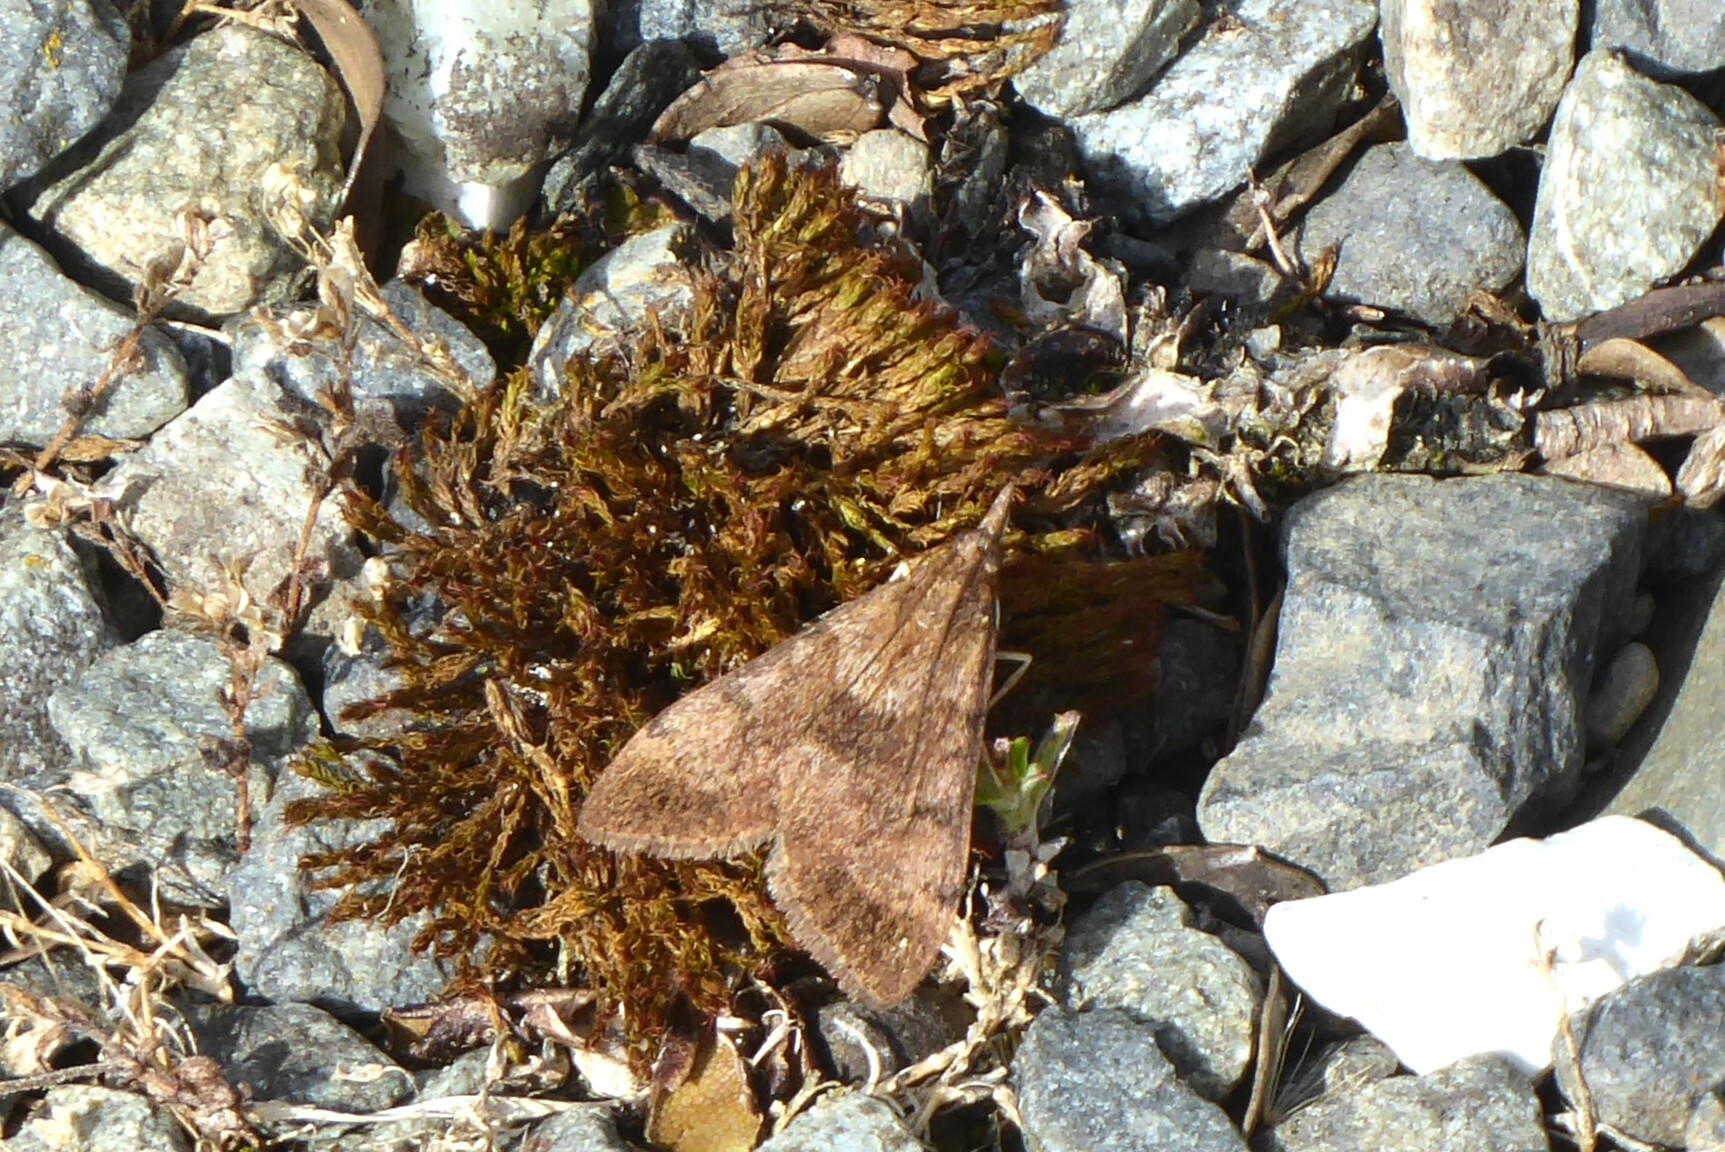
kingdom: Animalia
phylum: Arthropoda
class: Insecta
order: Lepidoptera
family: Crambidae
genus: Uresiphita
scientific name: Uresiphita
